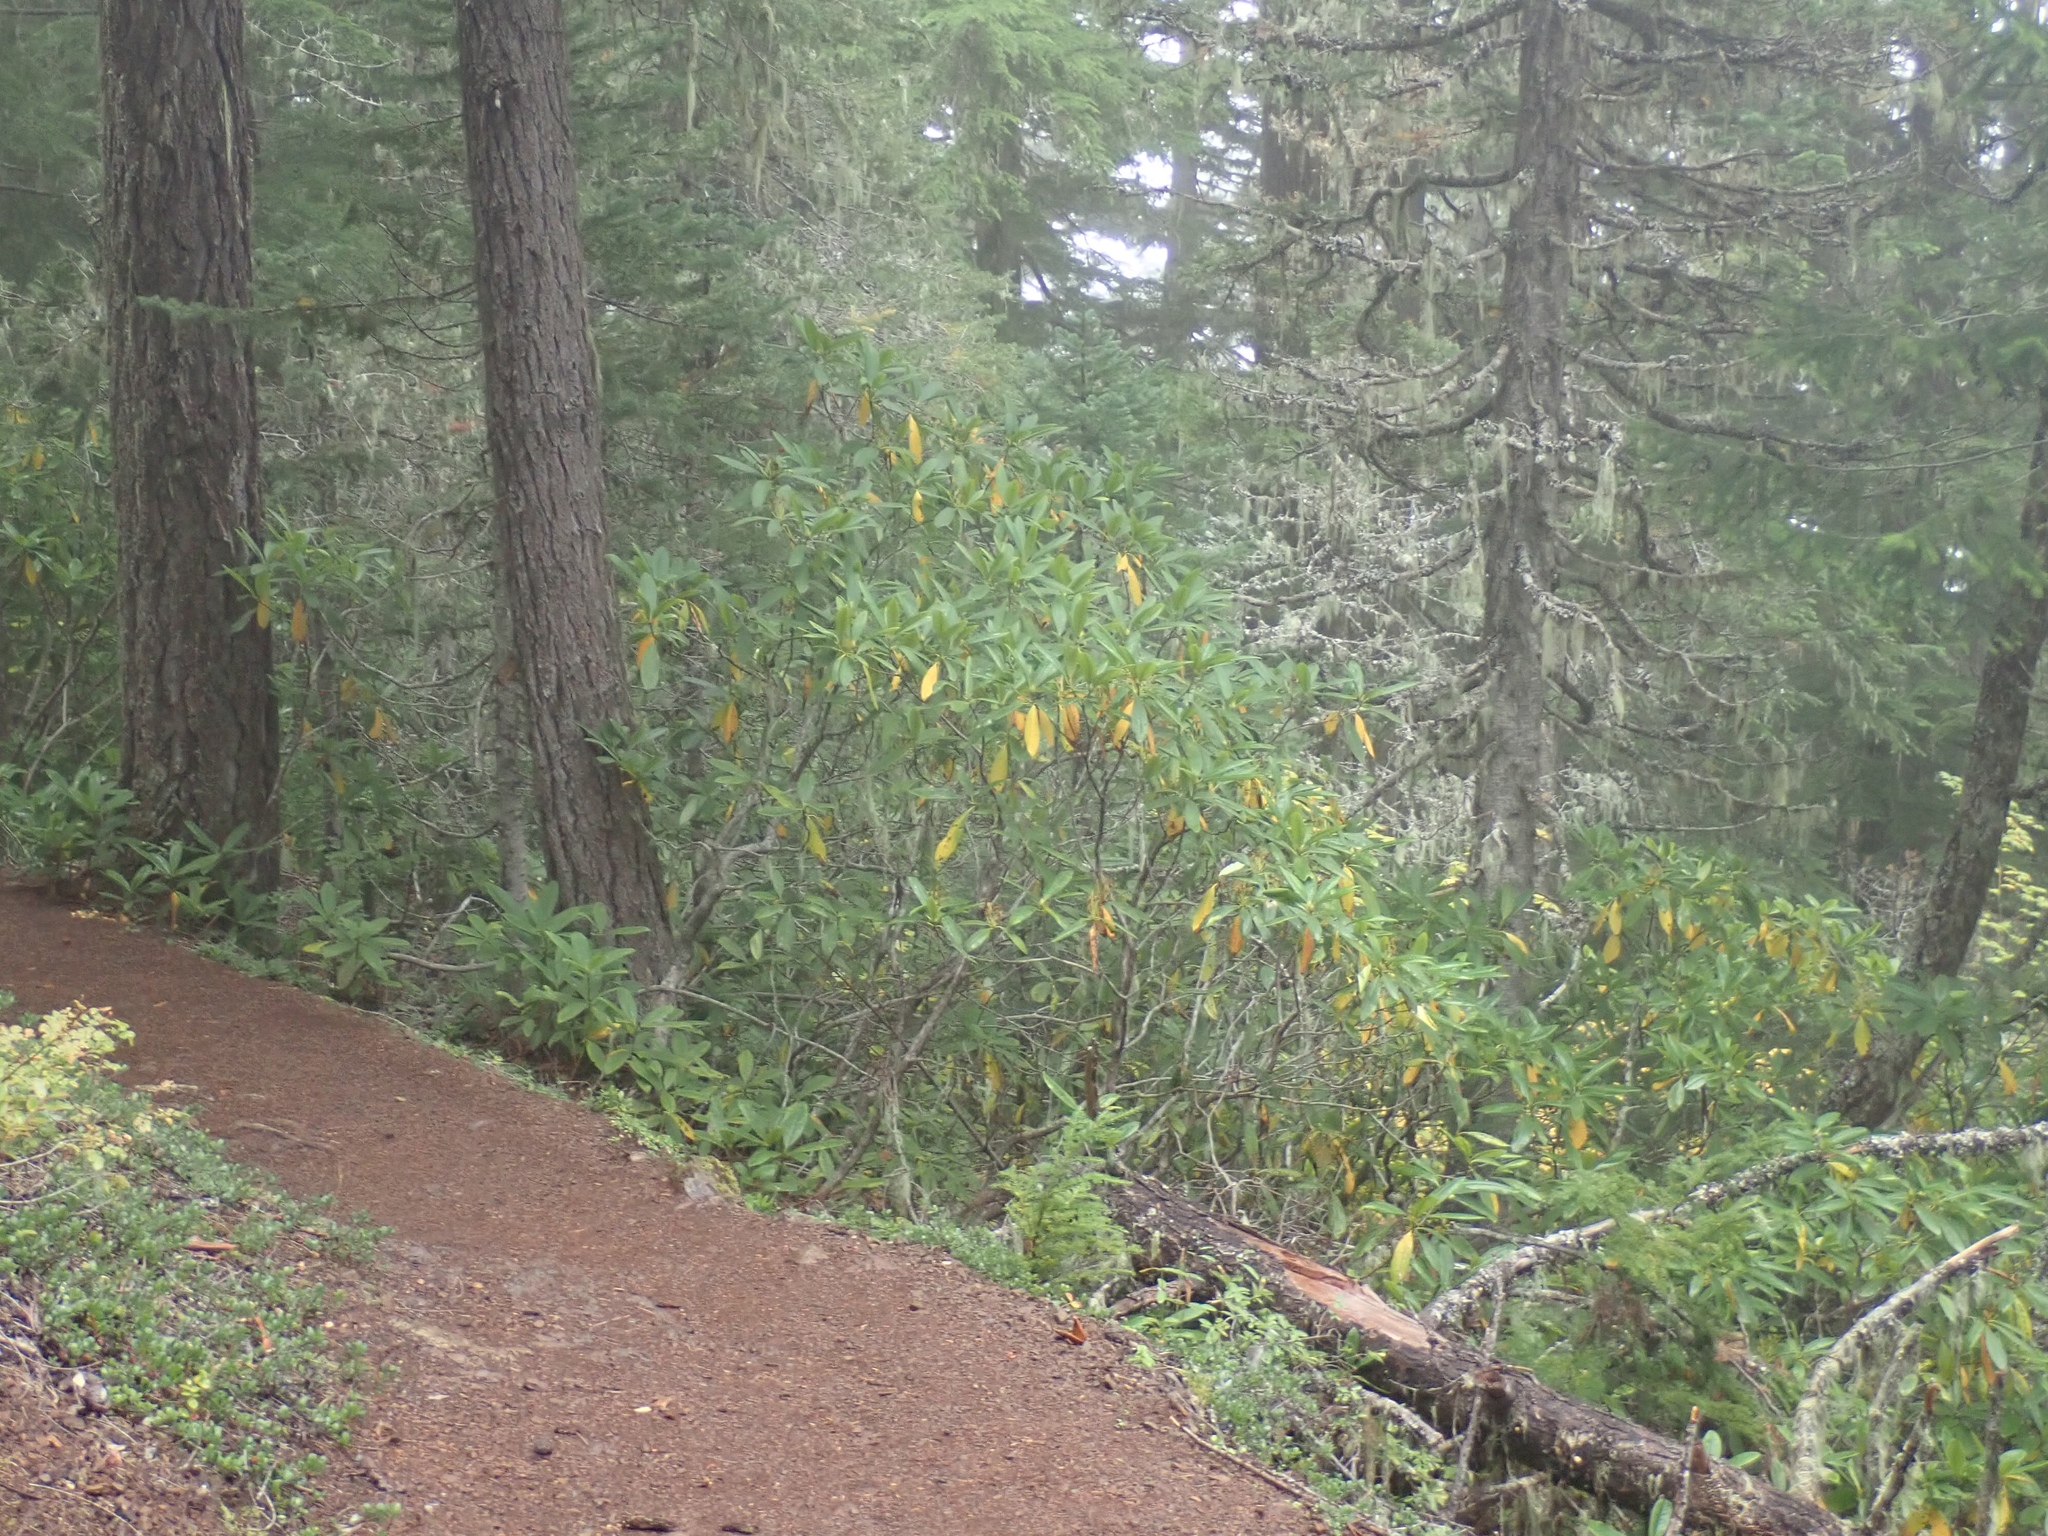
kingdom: Plantae
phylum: Tracheophyta
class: Magnoliopsida
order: Ericales
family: Ericaceae
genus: Rhododendron
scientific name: Rhododendron macrophyllum
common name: California rose bay
